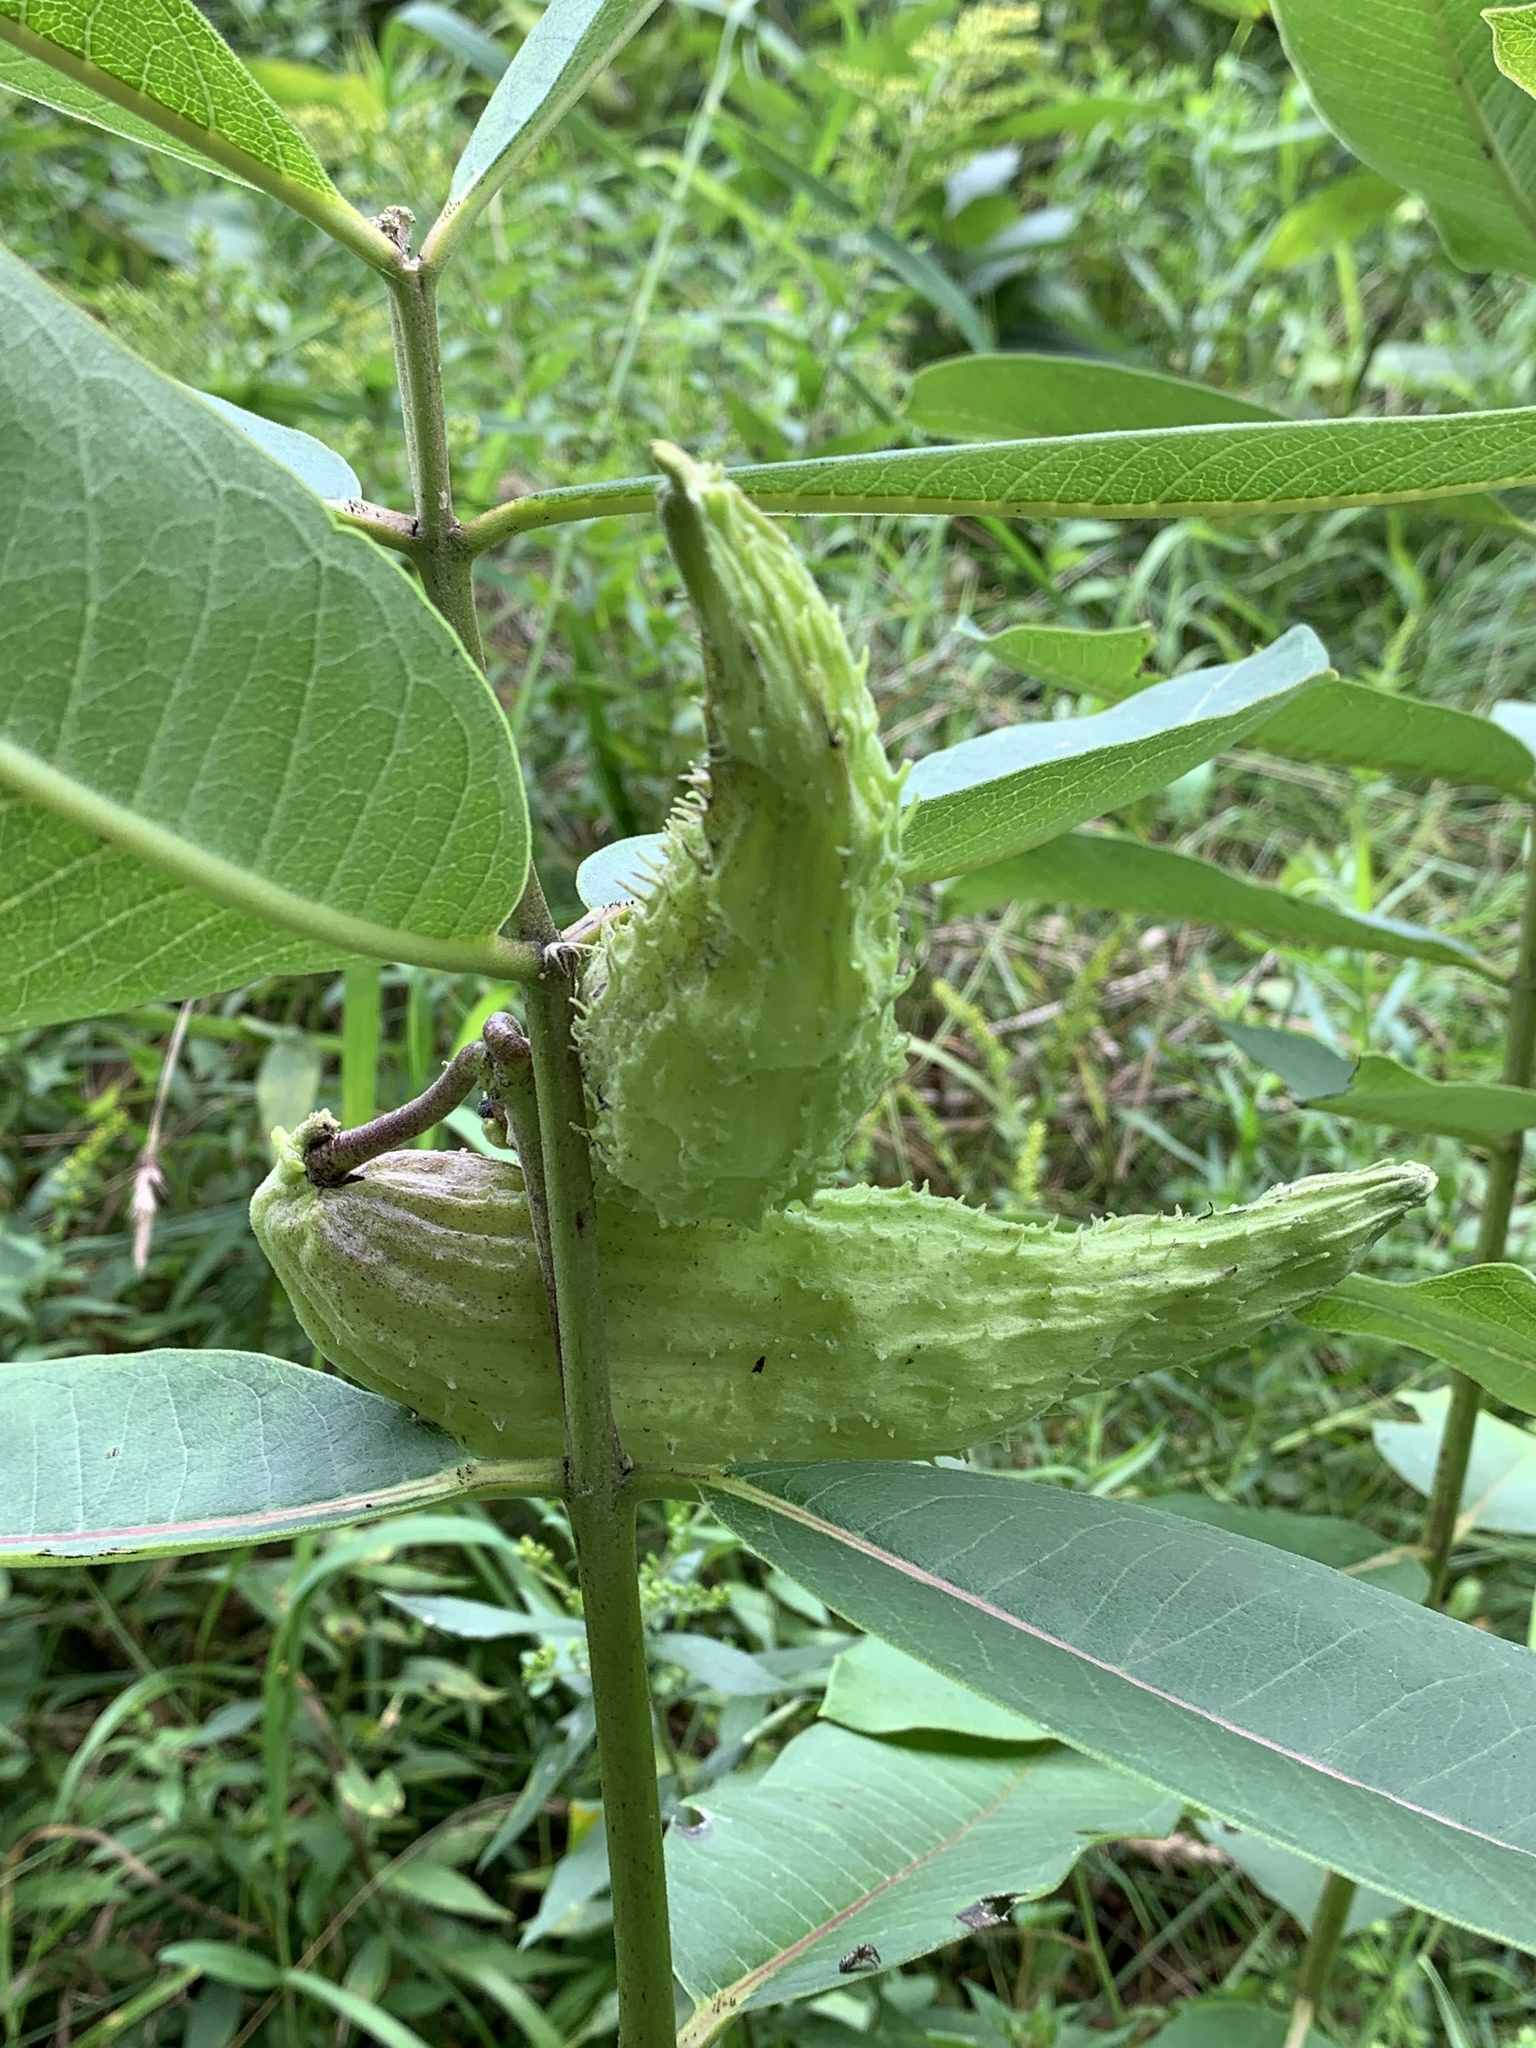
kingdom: Plantae
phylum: Tracheophyta
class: Magnoliopsida
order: Gentianales
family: Apocynaceae
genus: Asclepias
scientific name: Asclepias syriaca
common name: Common milkweed
